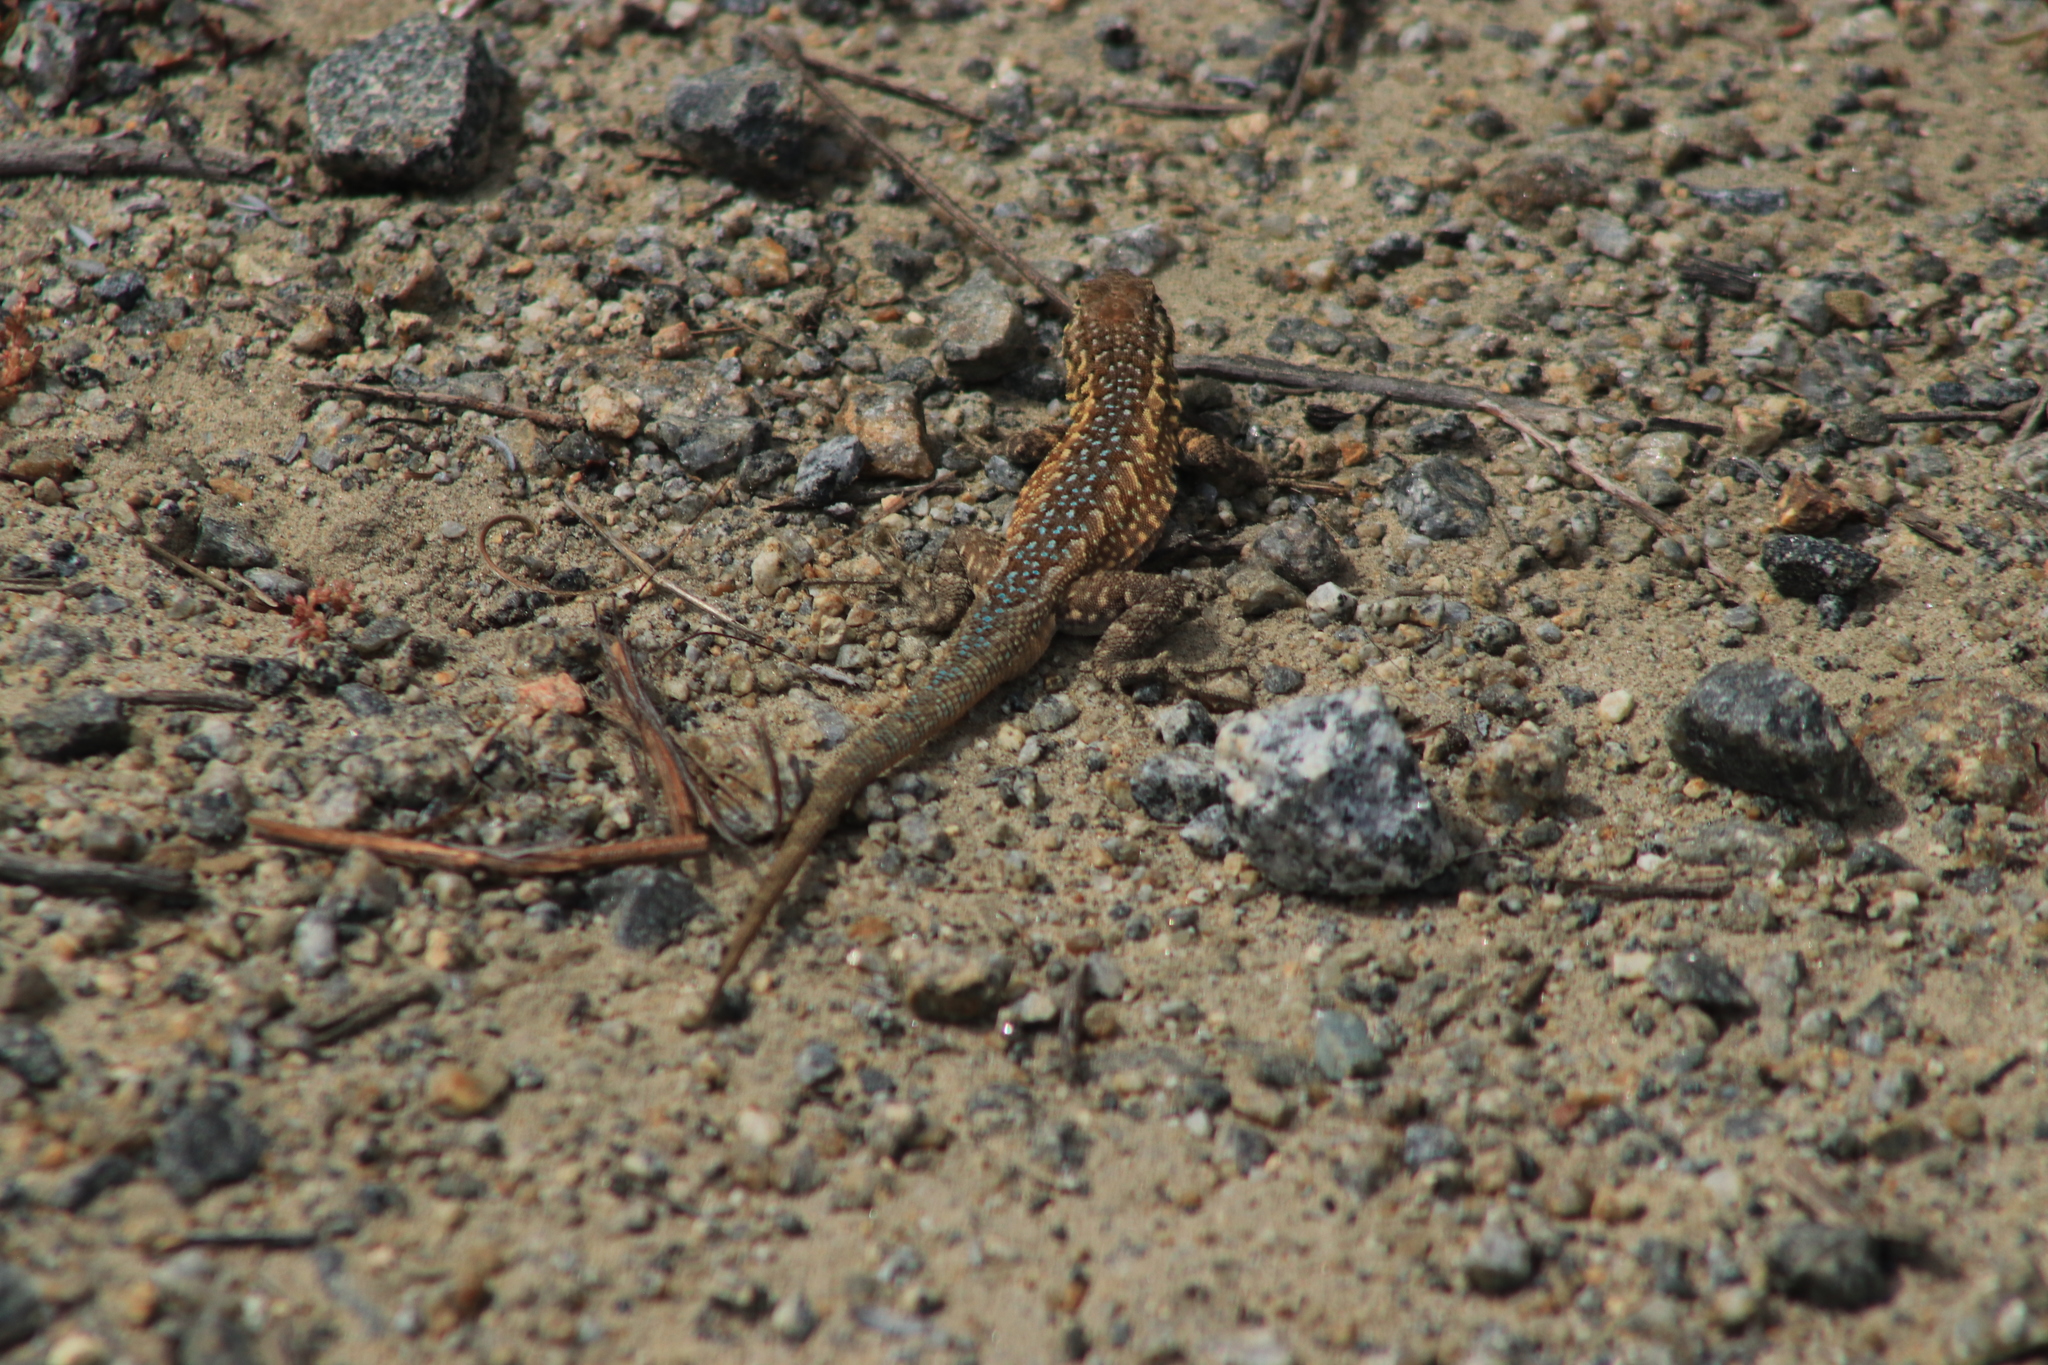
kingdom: Animalia
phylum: Chordata
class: Squamata
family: Phrynosomatidae
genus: Uta
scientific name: Uta stansburiana
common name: Side-blotched lizard
